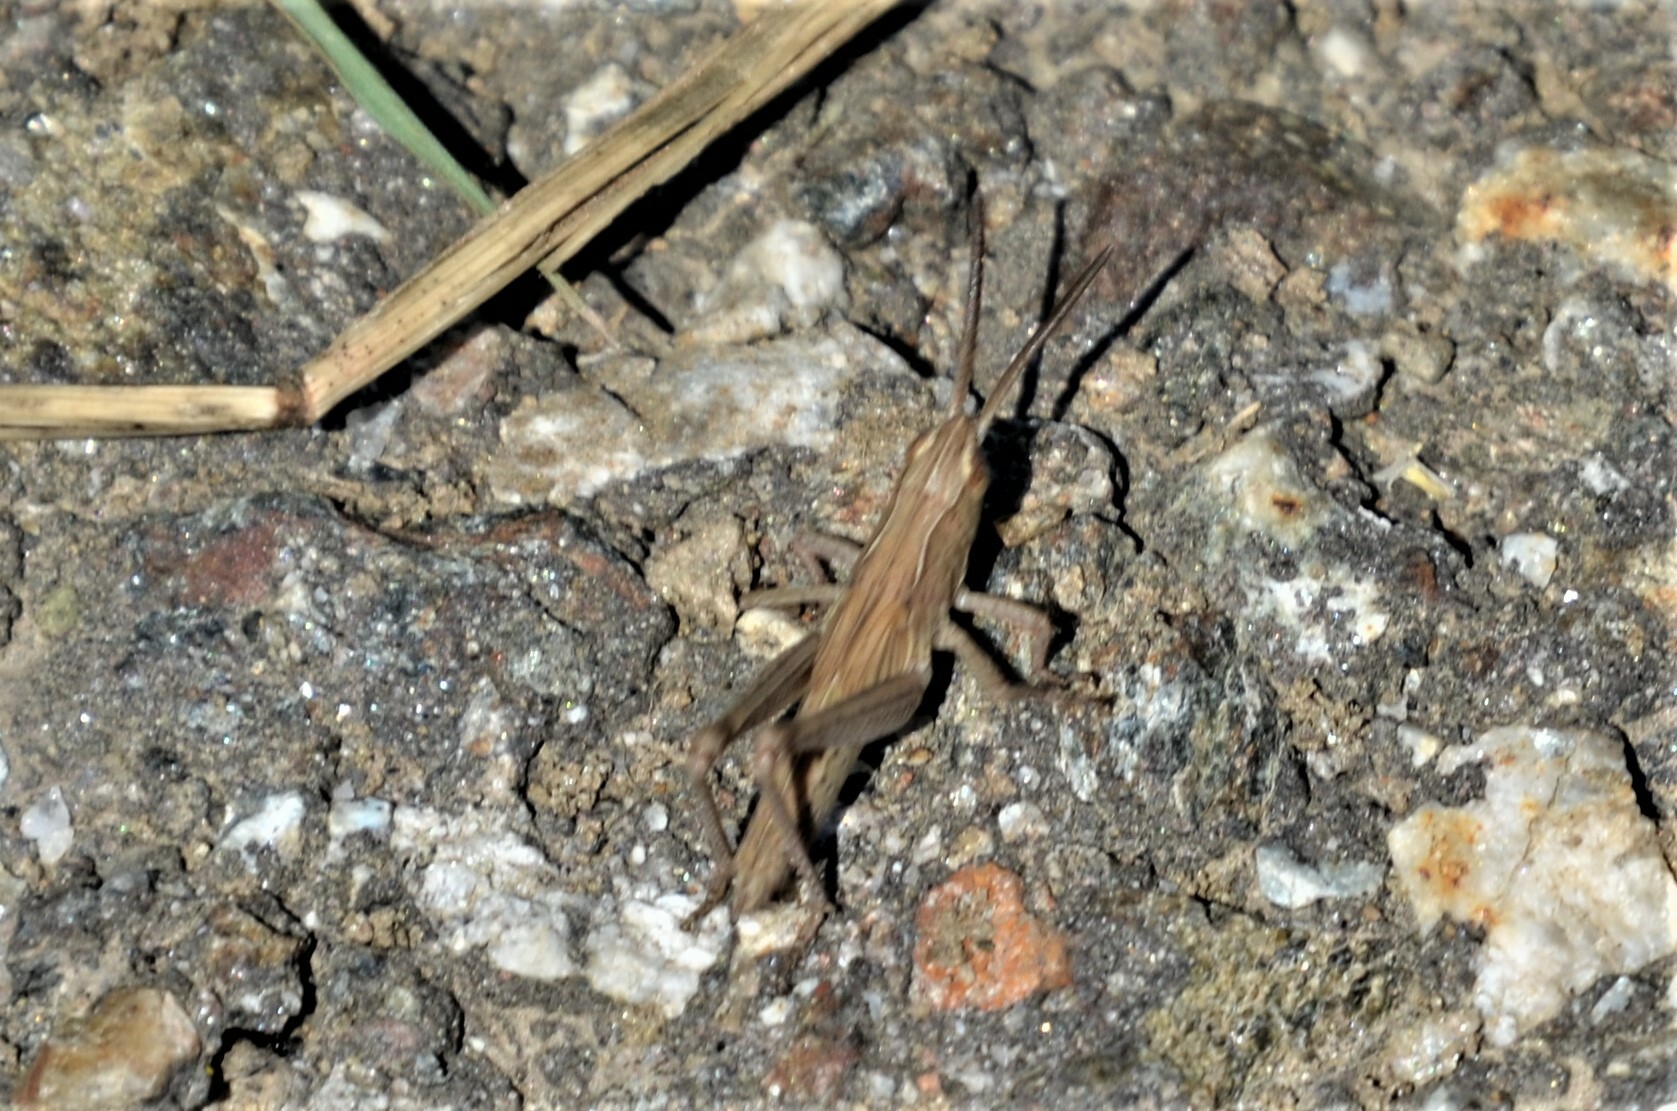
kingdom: Animalia
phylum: Arthropoda
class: Insecta
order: Orthoptera
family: Acrididae
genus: Chorthippus
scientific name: Chorthippus dorsatus
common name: Steppe grasshopper
